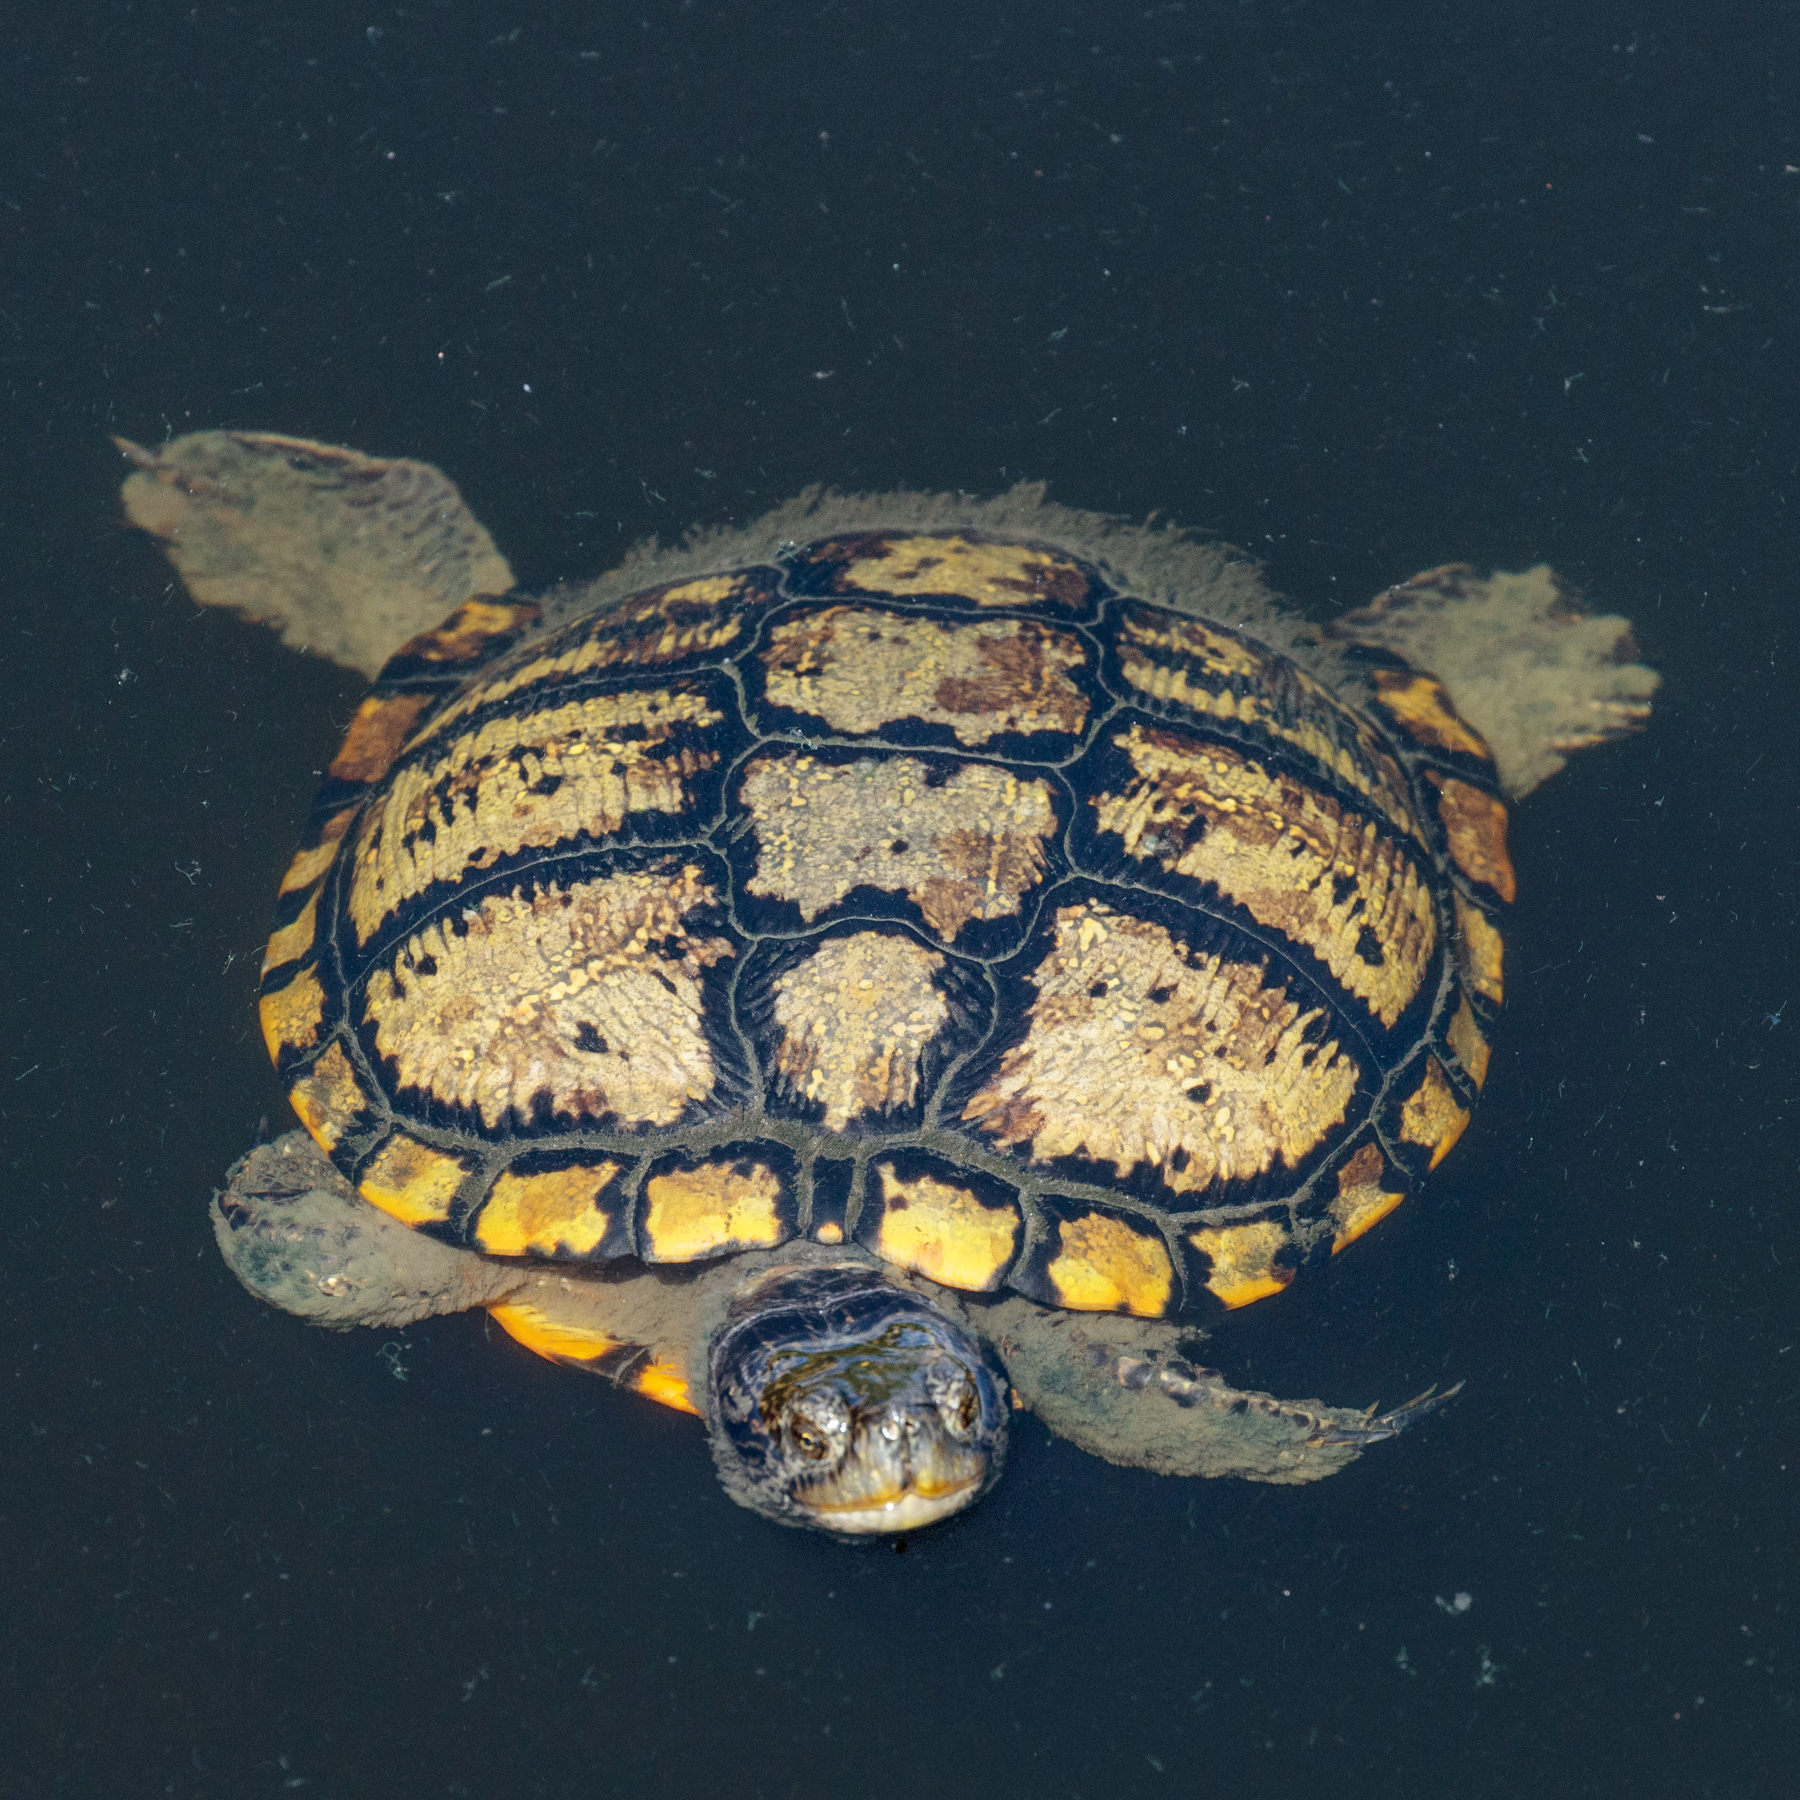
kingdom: Animalia
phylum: Chordata
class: Testudines
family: Emydidae
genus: Trachemys
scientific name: Trachemys scripta
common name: Slider
